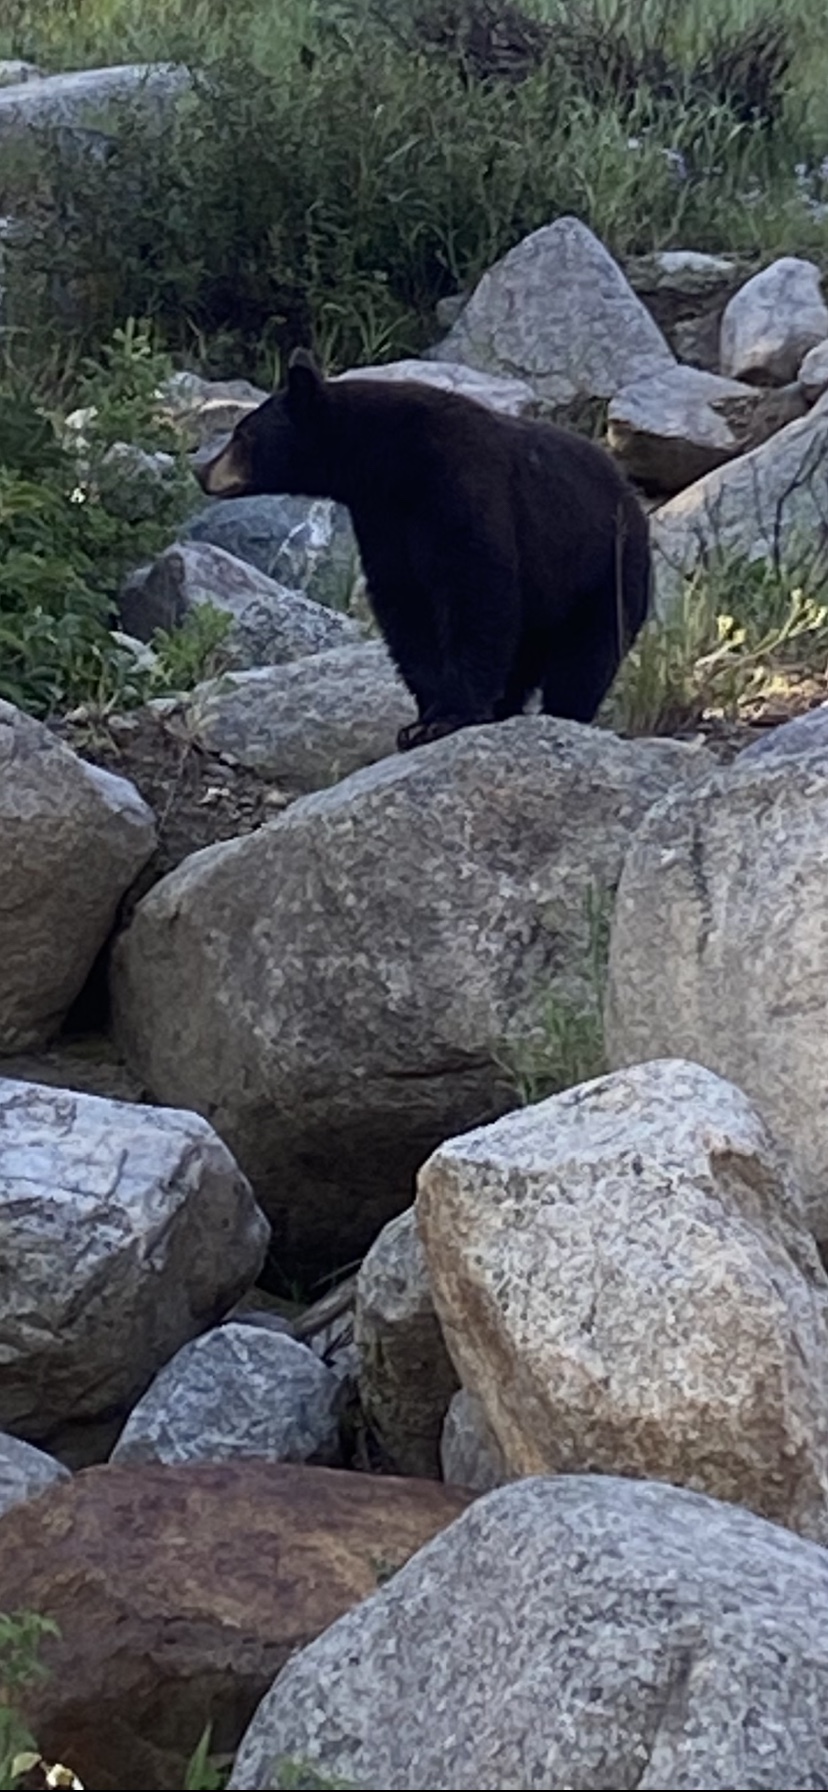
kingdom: Animalia
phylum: Chordata
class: Mammalia
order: Carnivora
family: Ursidae
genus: Ursus
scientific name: Ursus americanus
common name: American black bear
